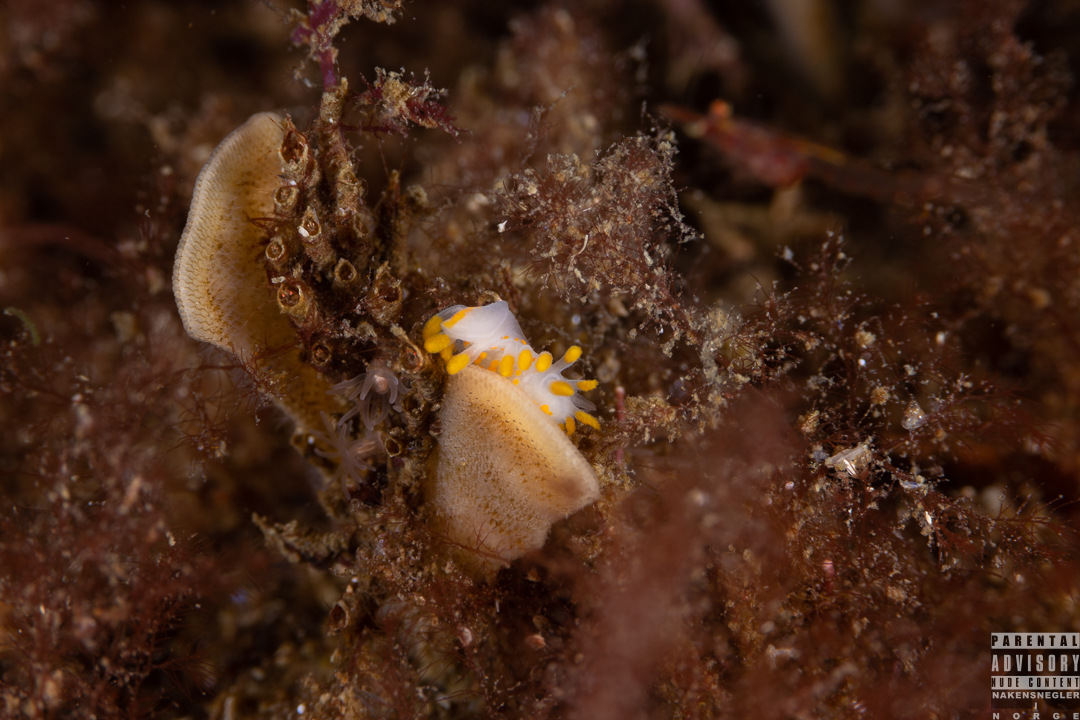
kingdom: Animalia
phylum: Mollusca
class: Gastropoda
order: Nudibranchia
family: Polyceridae
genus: Limacia
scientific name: Limacia clavigera
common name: Orange-clubbed sea slug
